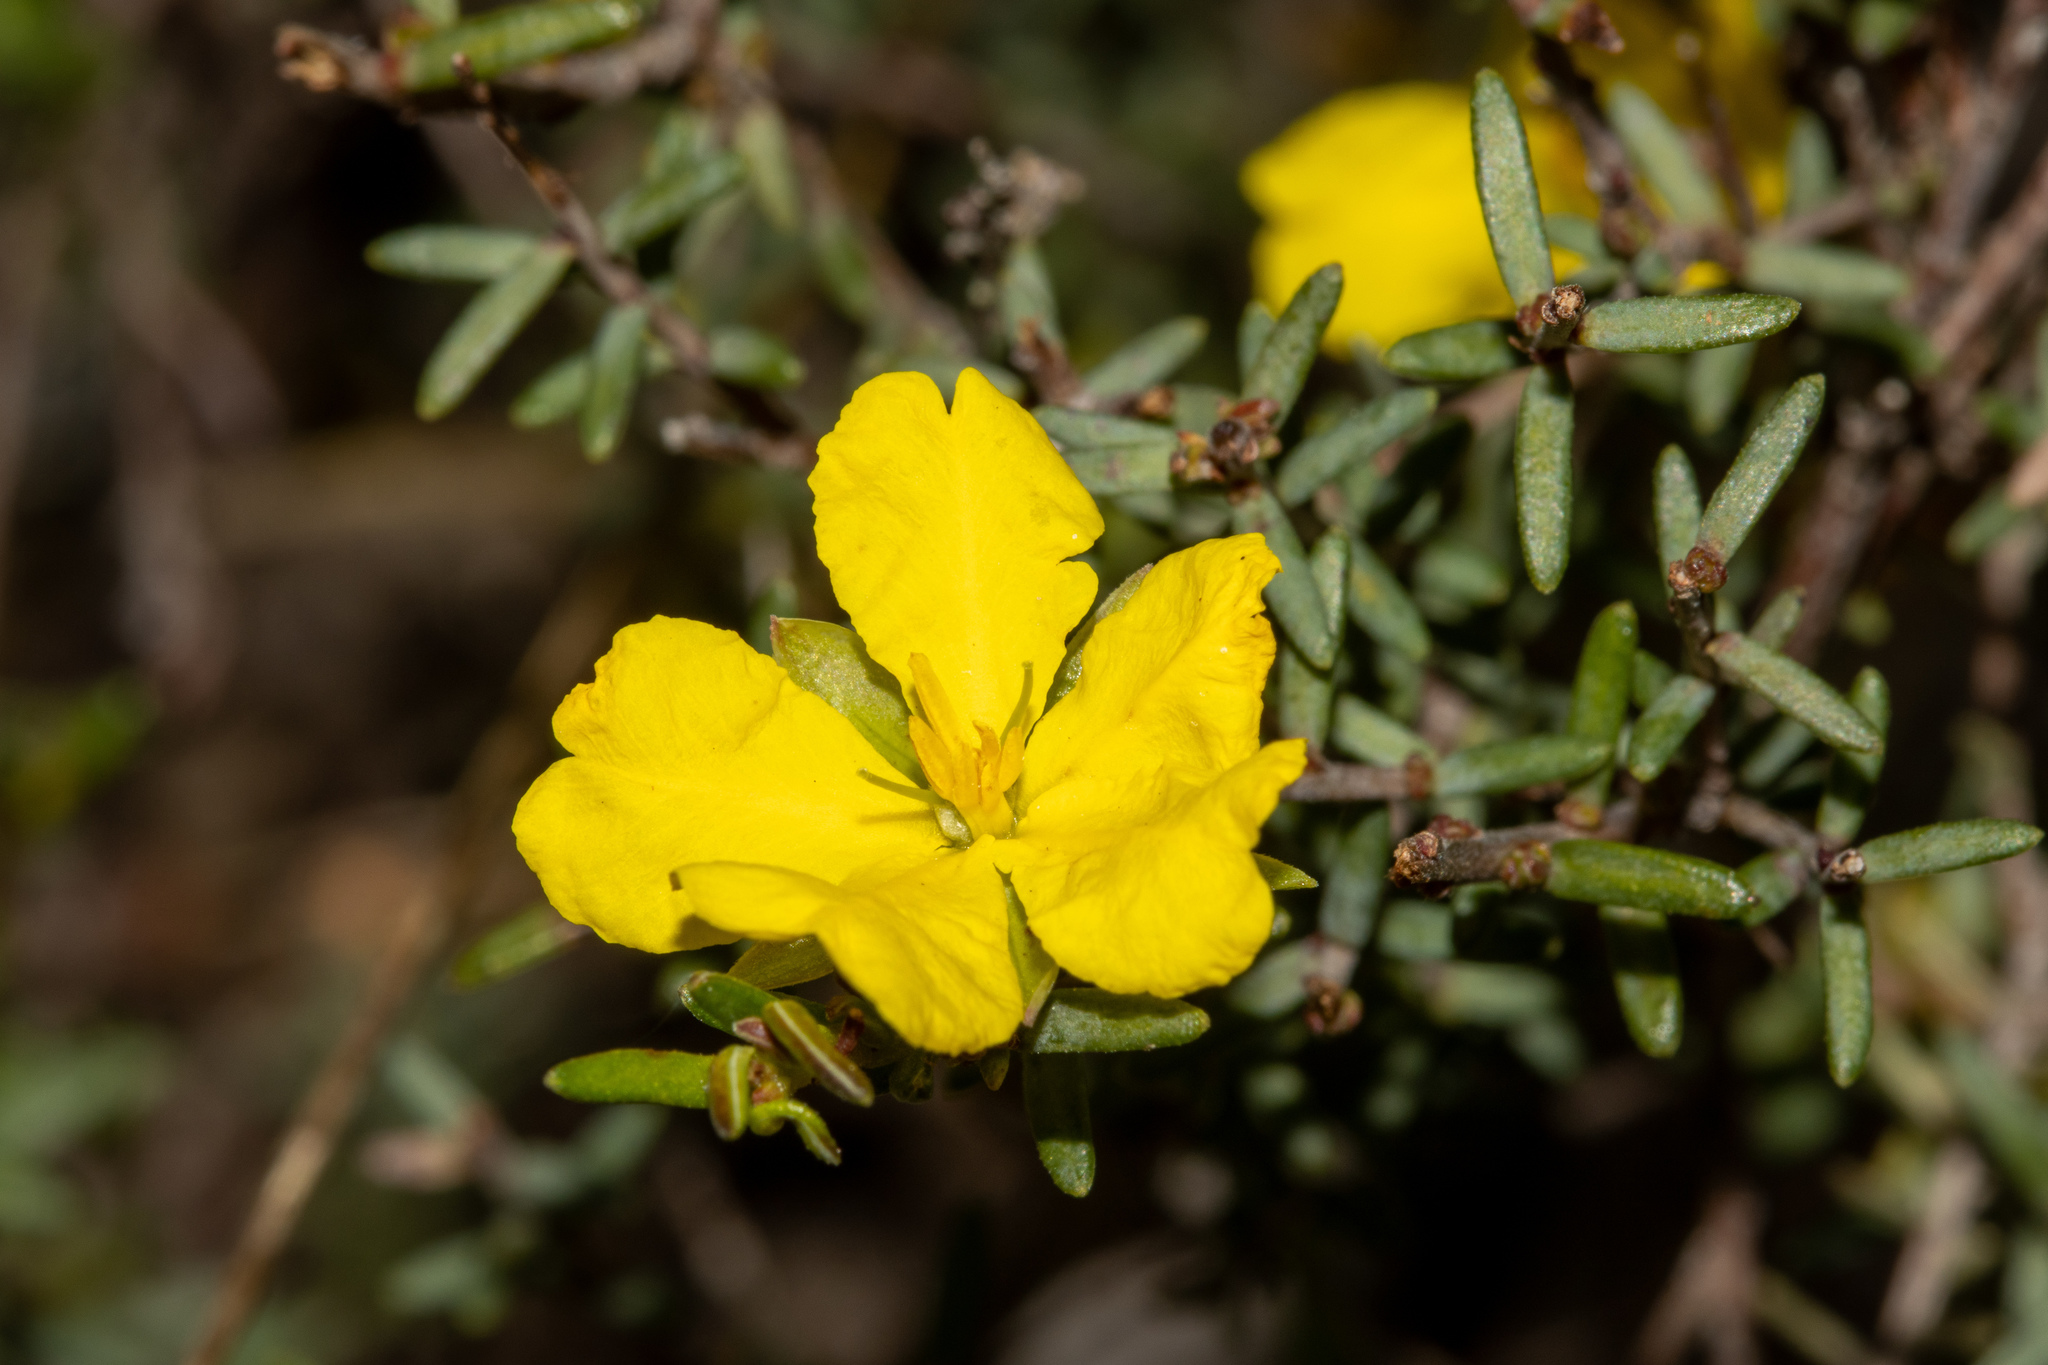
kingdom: Plantae
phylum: Tracheophyta
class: Magnoliopsida
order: Dilleniales
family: Dilleniaceae
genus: Hibbertia
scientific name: Hibbertia devitata
